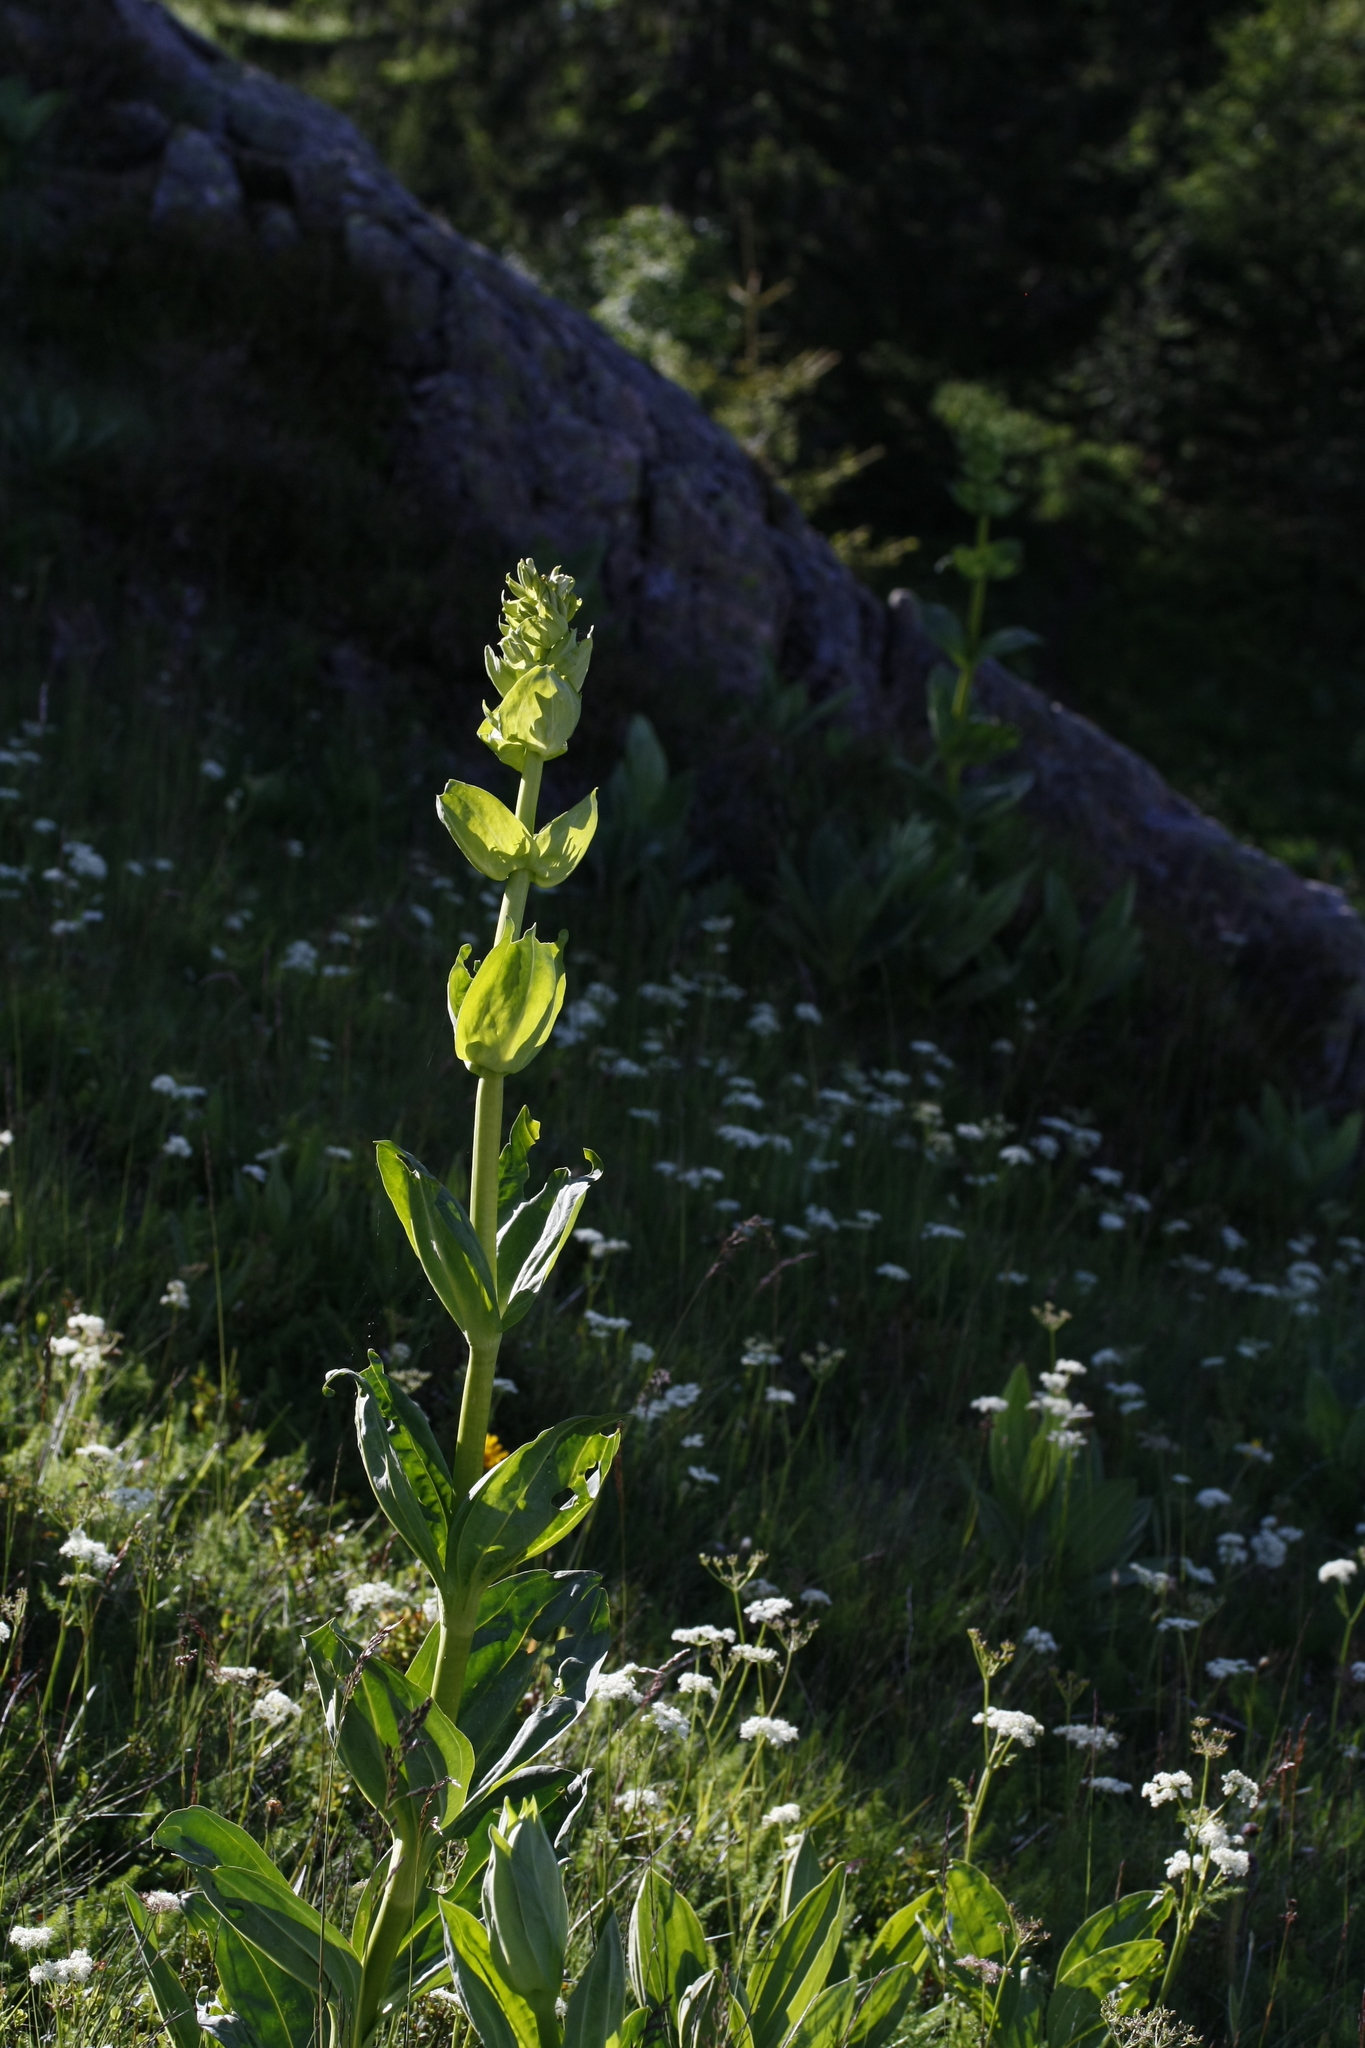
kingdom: Plantae
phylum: Tracheophyta
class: Magnoliopsida
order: Gentianales
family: Gentianaceae
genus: Gentiana
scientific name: Gentiana lutea
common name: Great yellow gentian
